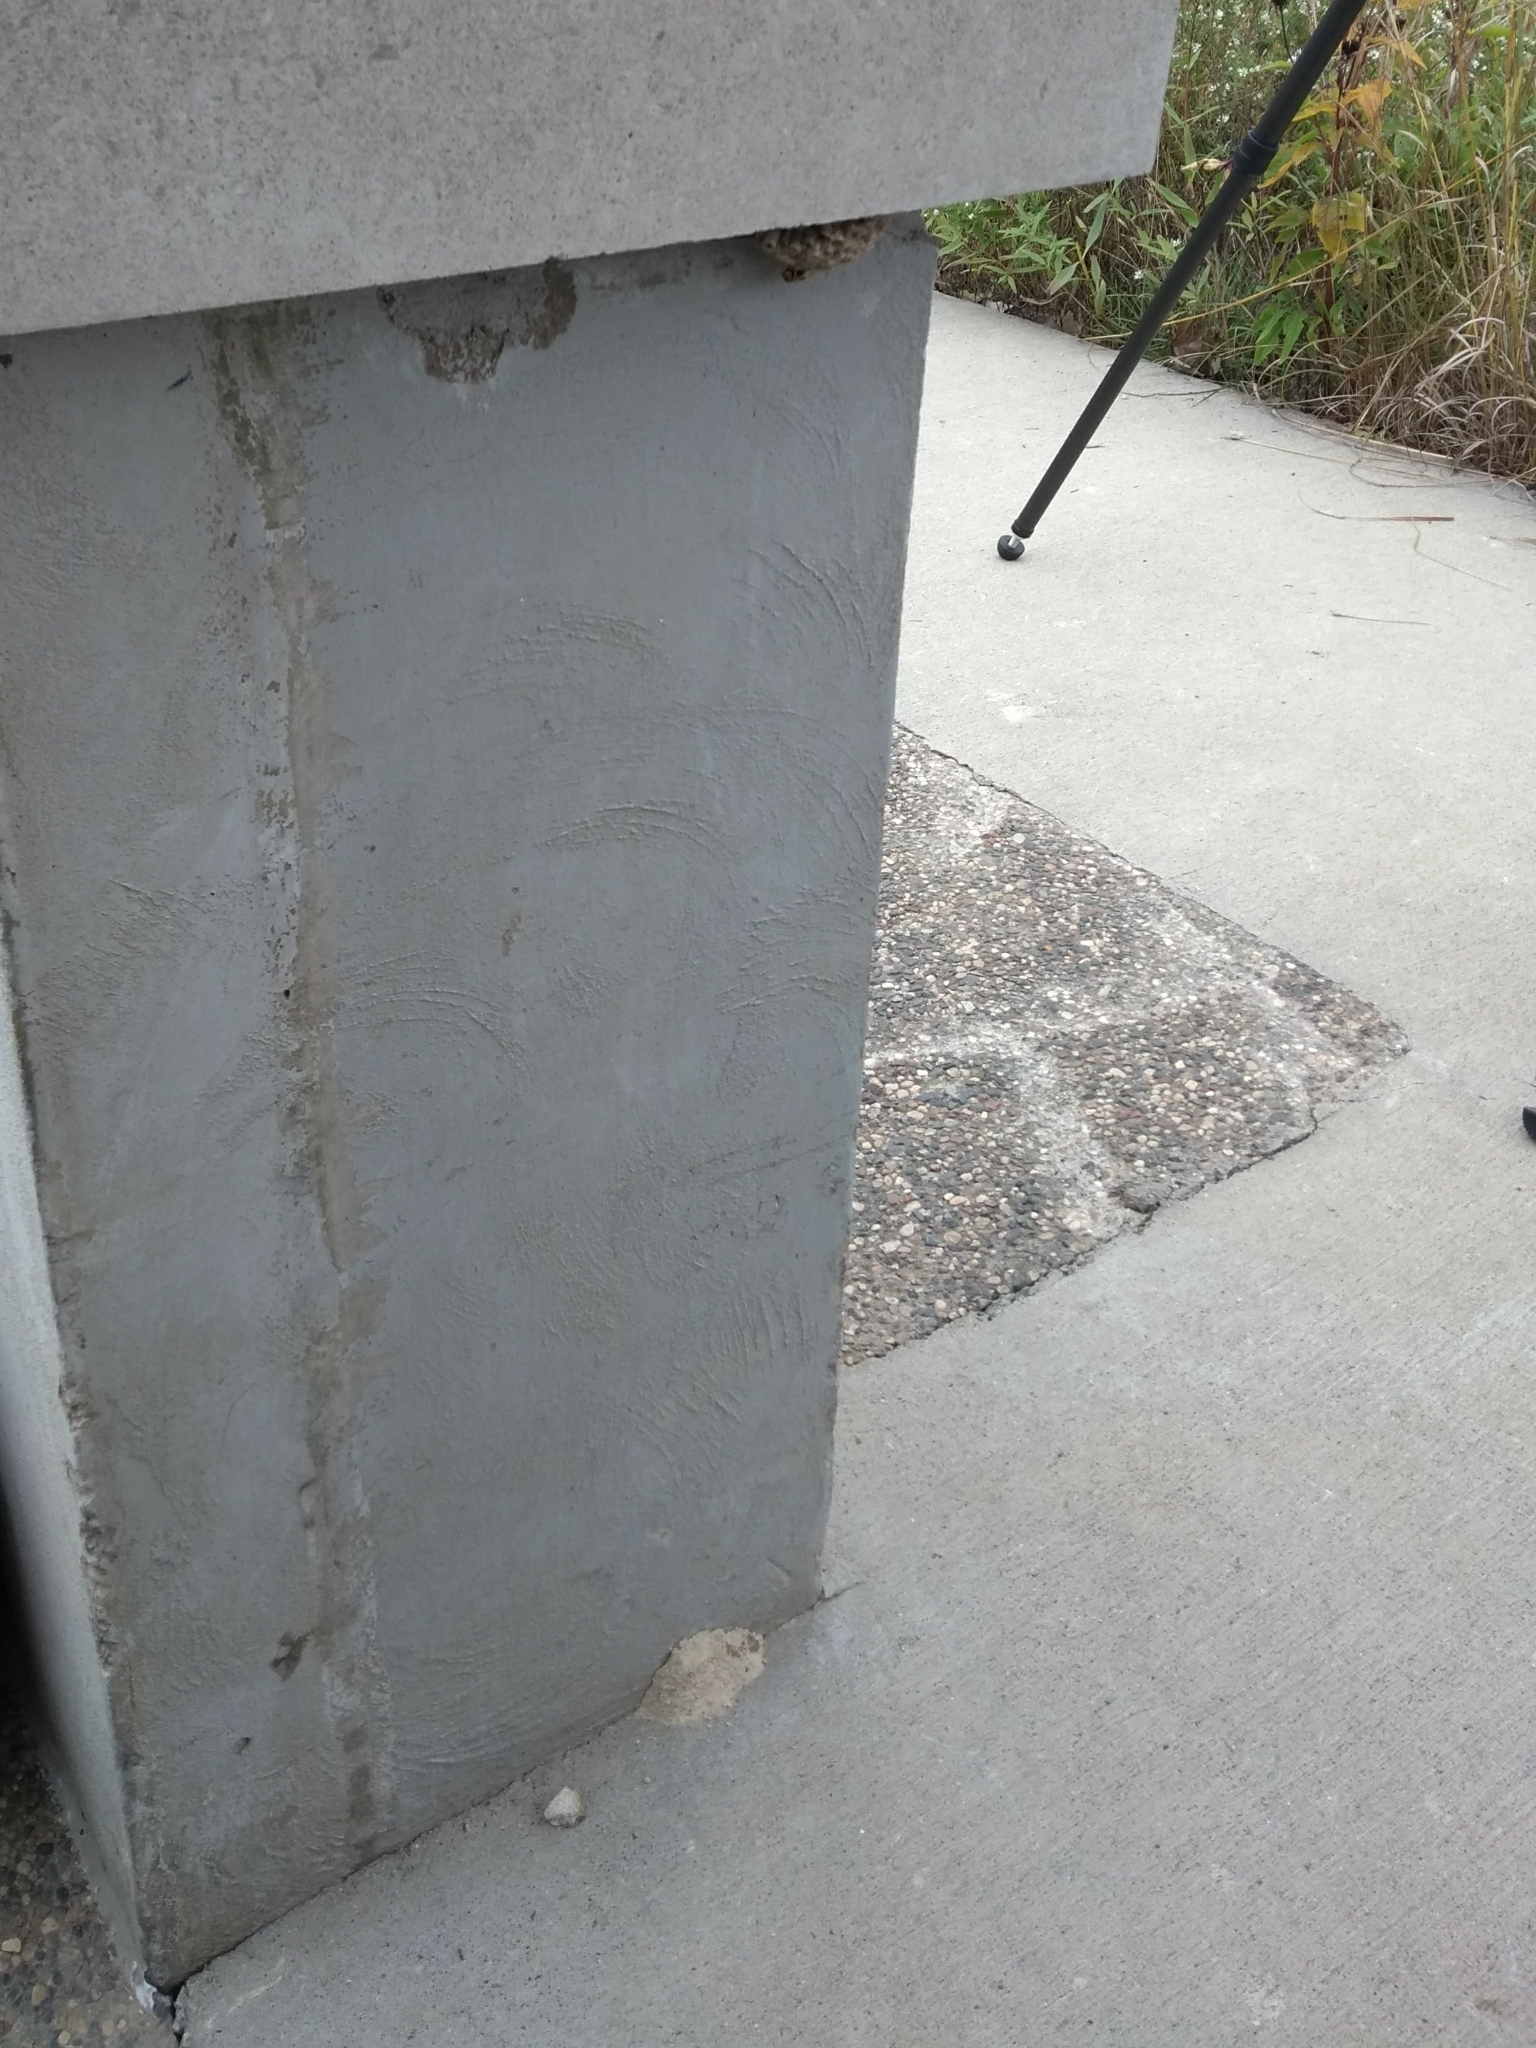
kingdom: Animalia
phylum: Arthropoda
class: Insecta
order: Hymenoptera
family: Eumenidae
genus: Polistes
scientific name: Polistes dominula
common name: Paper wasp
